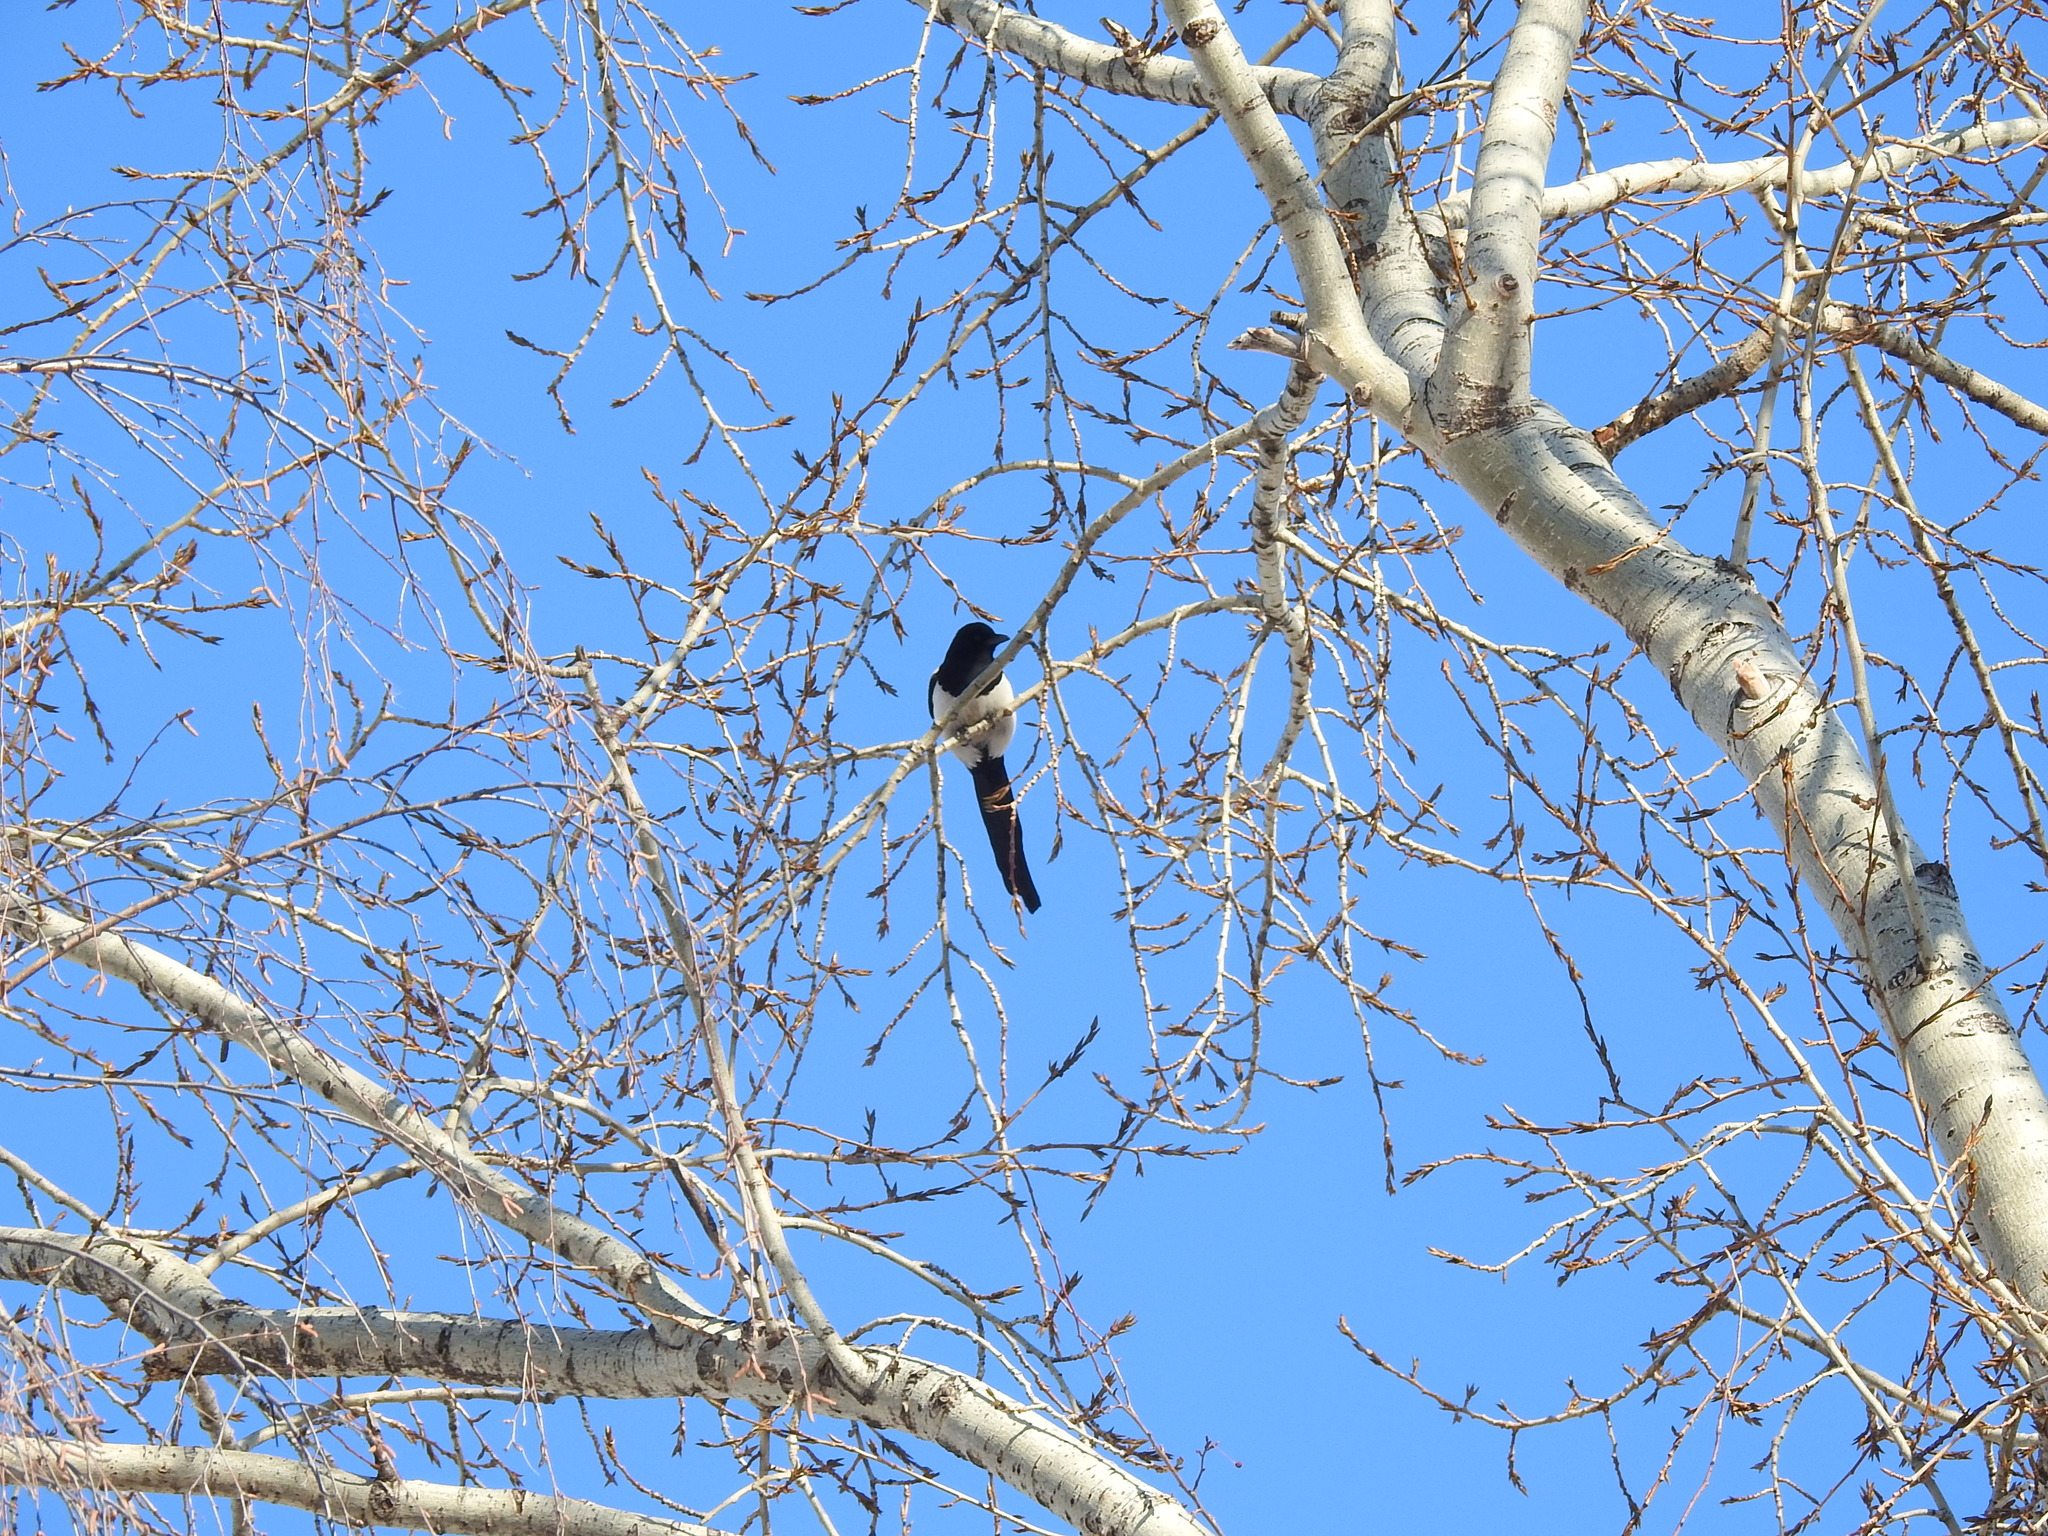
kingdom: Animalia
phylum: Chordata
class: Aves
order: Passeriformes
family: Corvidae
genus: Pica
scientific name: Pica pica
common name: Eurasian magpie
